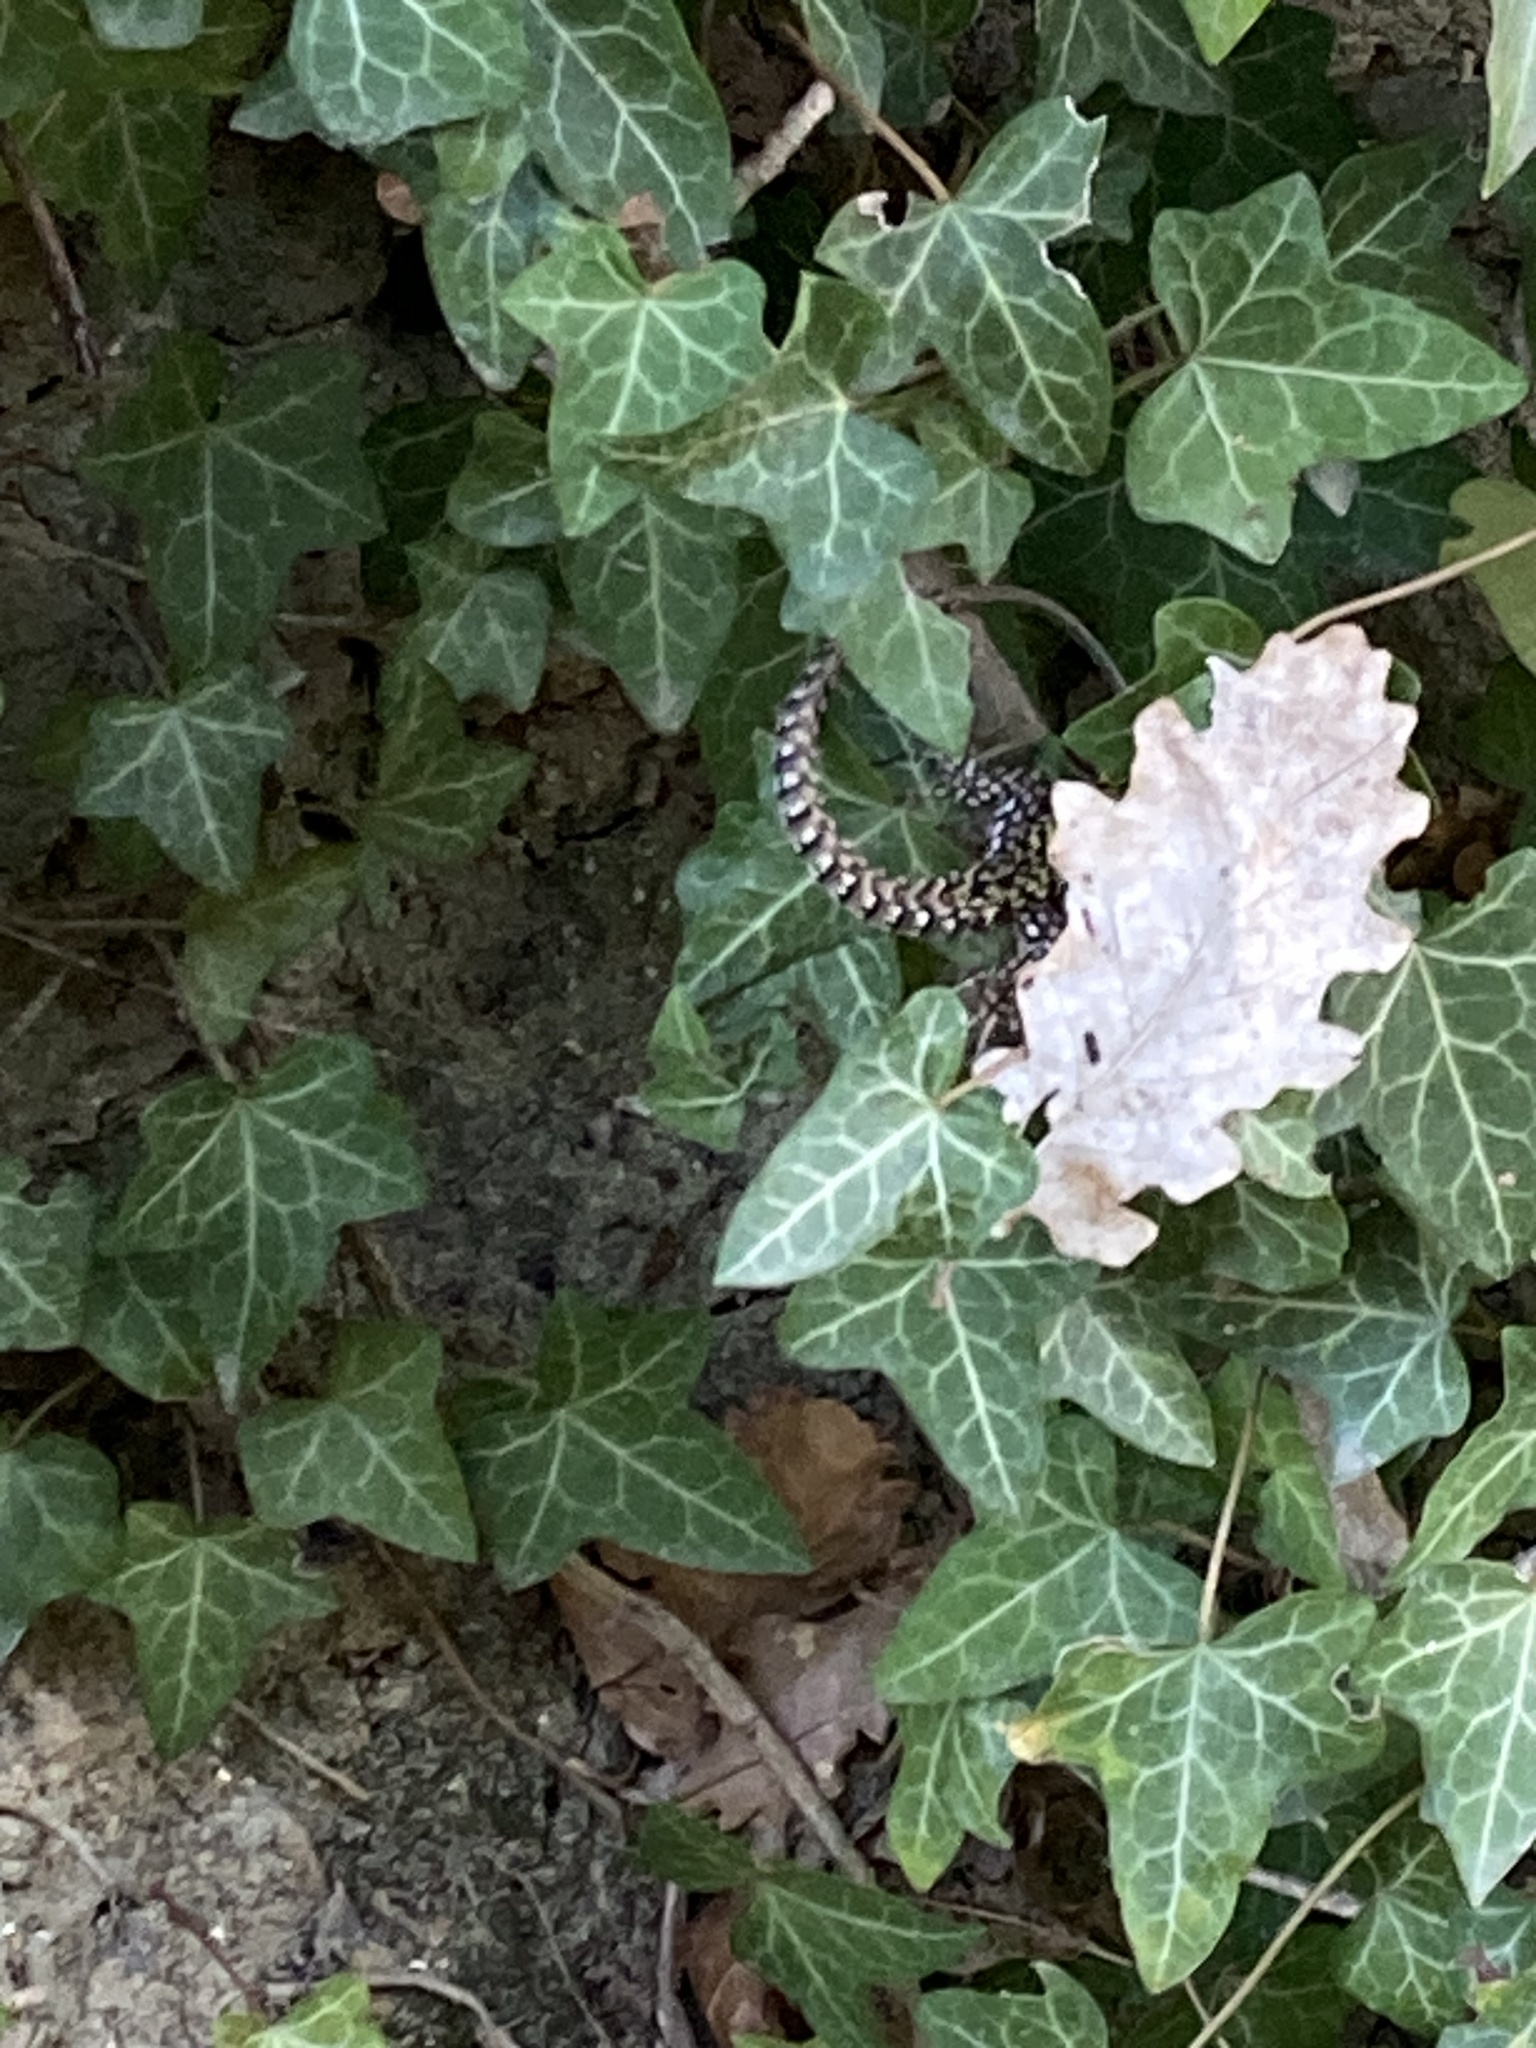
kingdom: Animalia
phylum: Chordata
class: Squamata
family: Lacertidae
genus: Podarcis
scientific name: Podarcis muralis
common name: Common wall lizard
